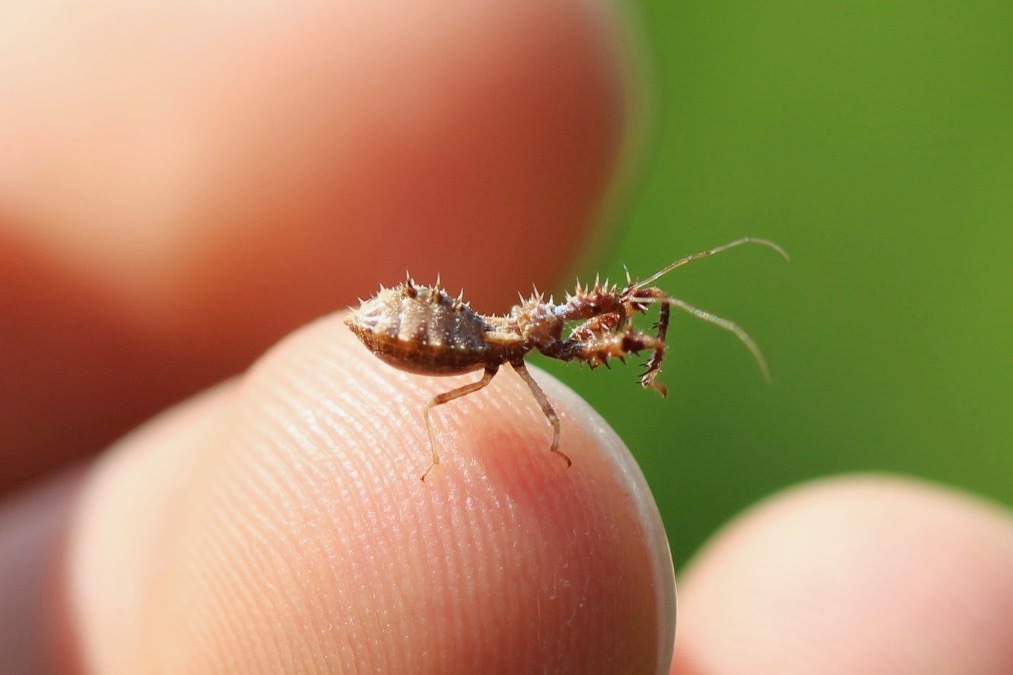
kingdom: Animalia
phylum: Arthropoda
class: Insecta
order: Hemiptera
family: Reduviidae
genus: Sinea
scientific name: Sinea spinipes
